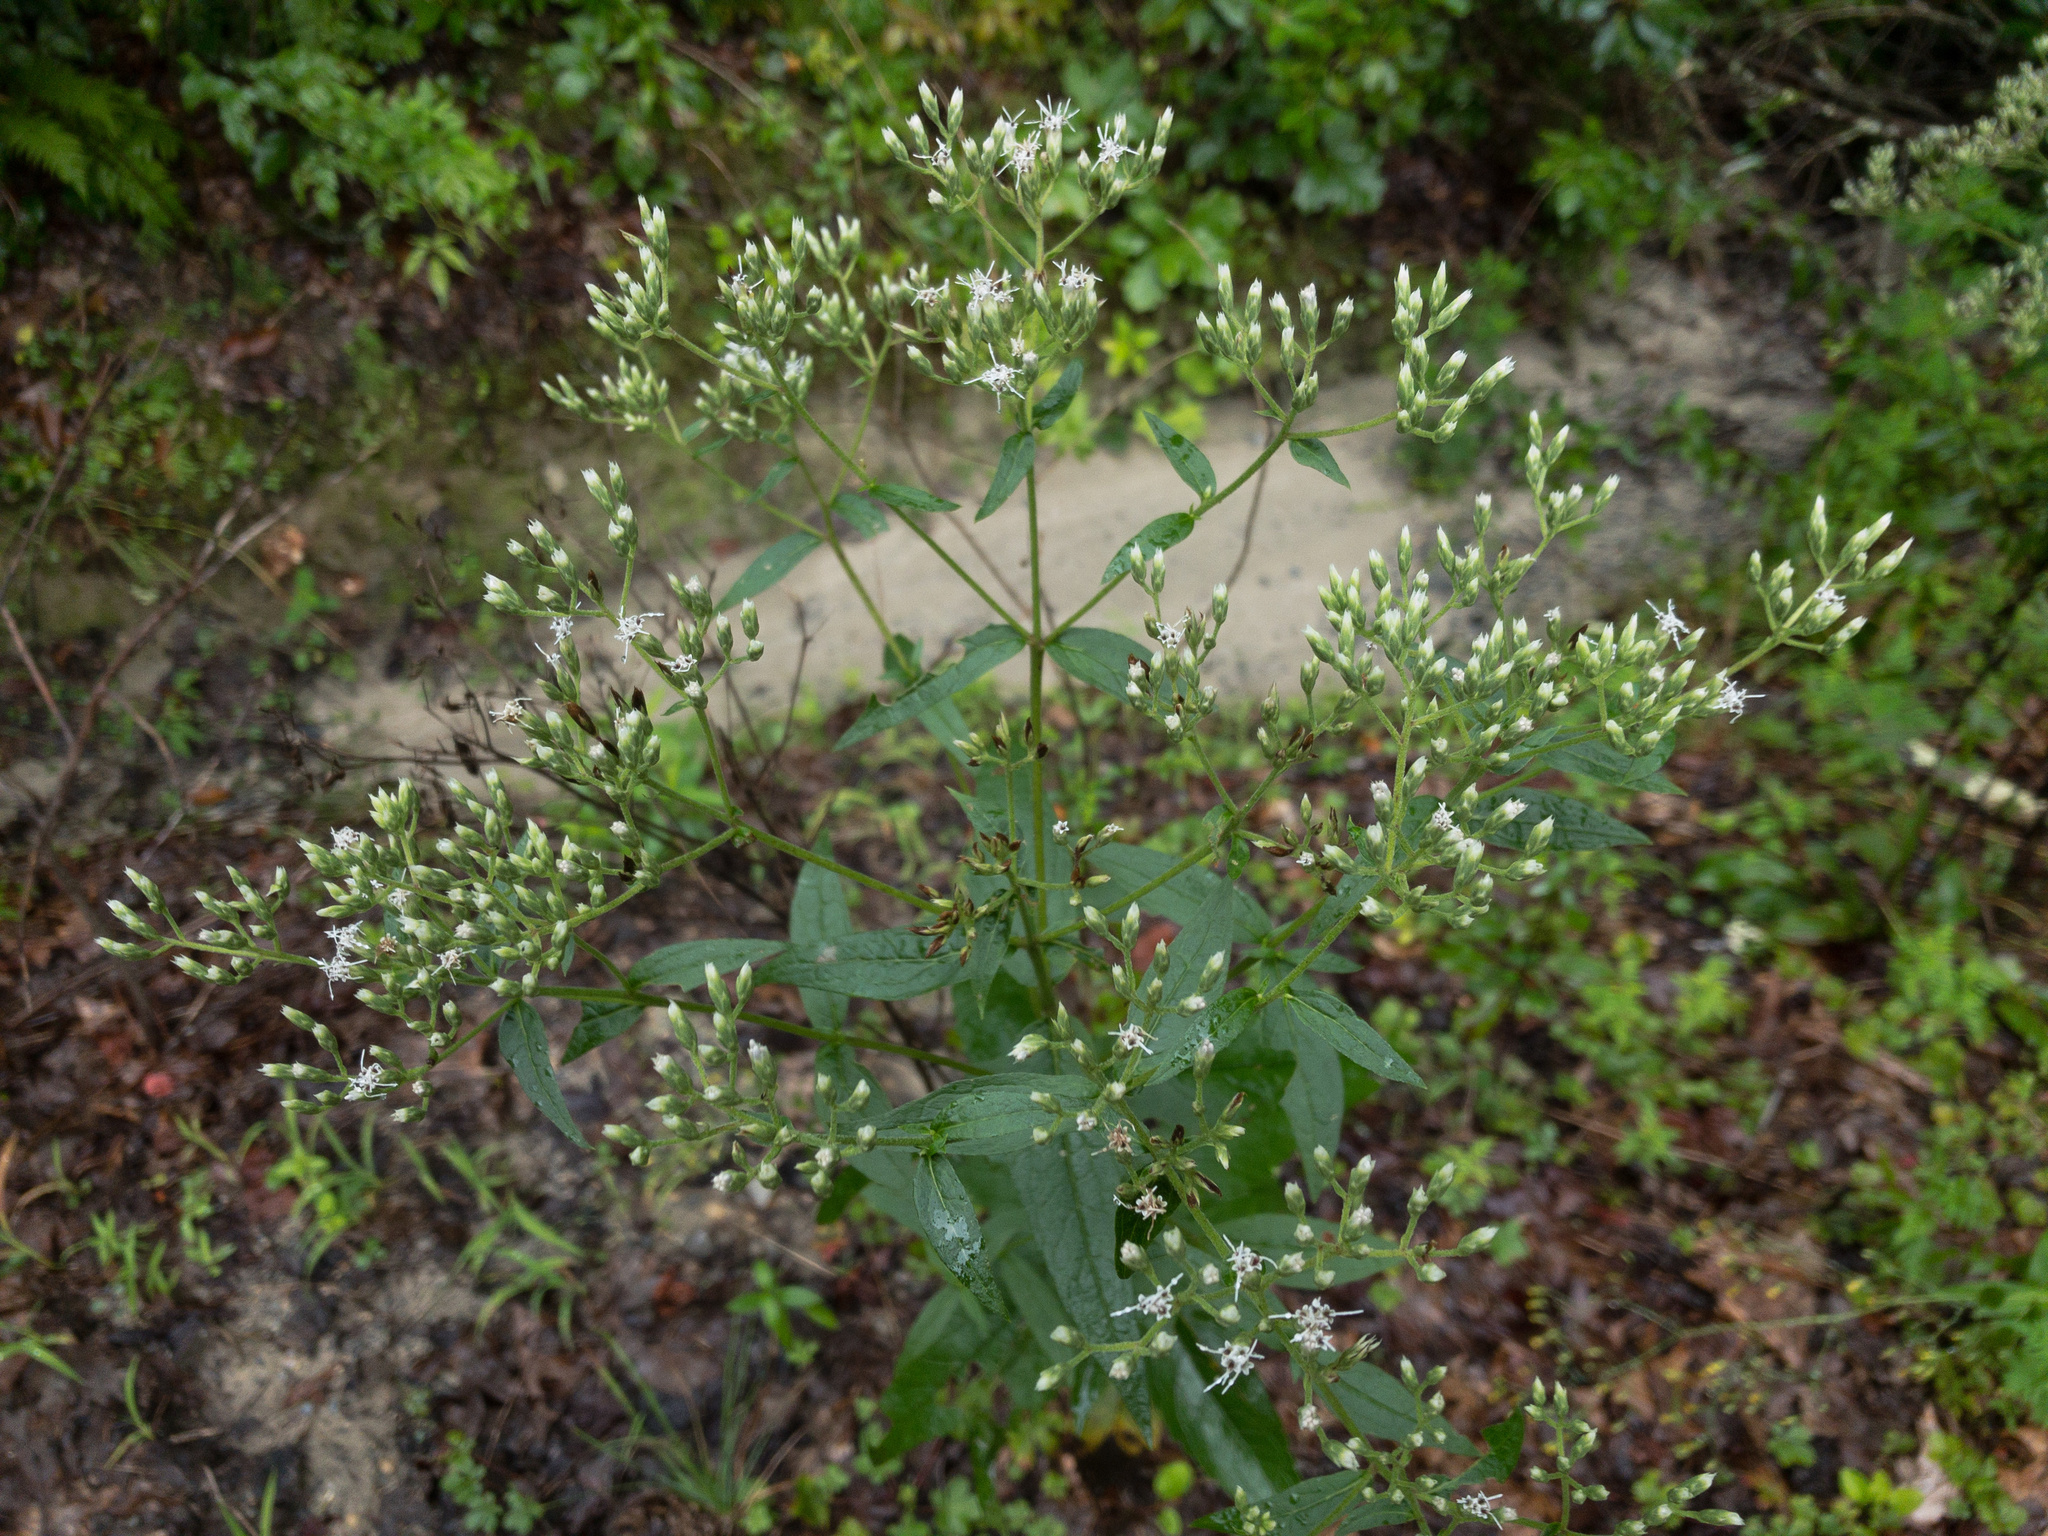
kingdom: Plantae
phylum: Tracheophyta
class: Magnoliopsida
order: Asterales
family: Asteraceae
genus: Eupatorium
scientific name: Eupatorium sessilifolium
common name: Upland boneset
